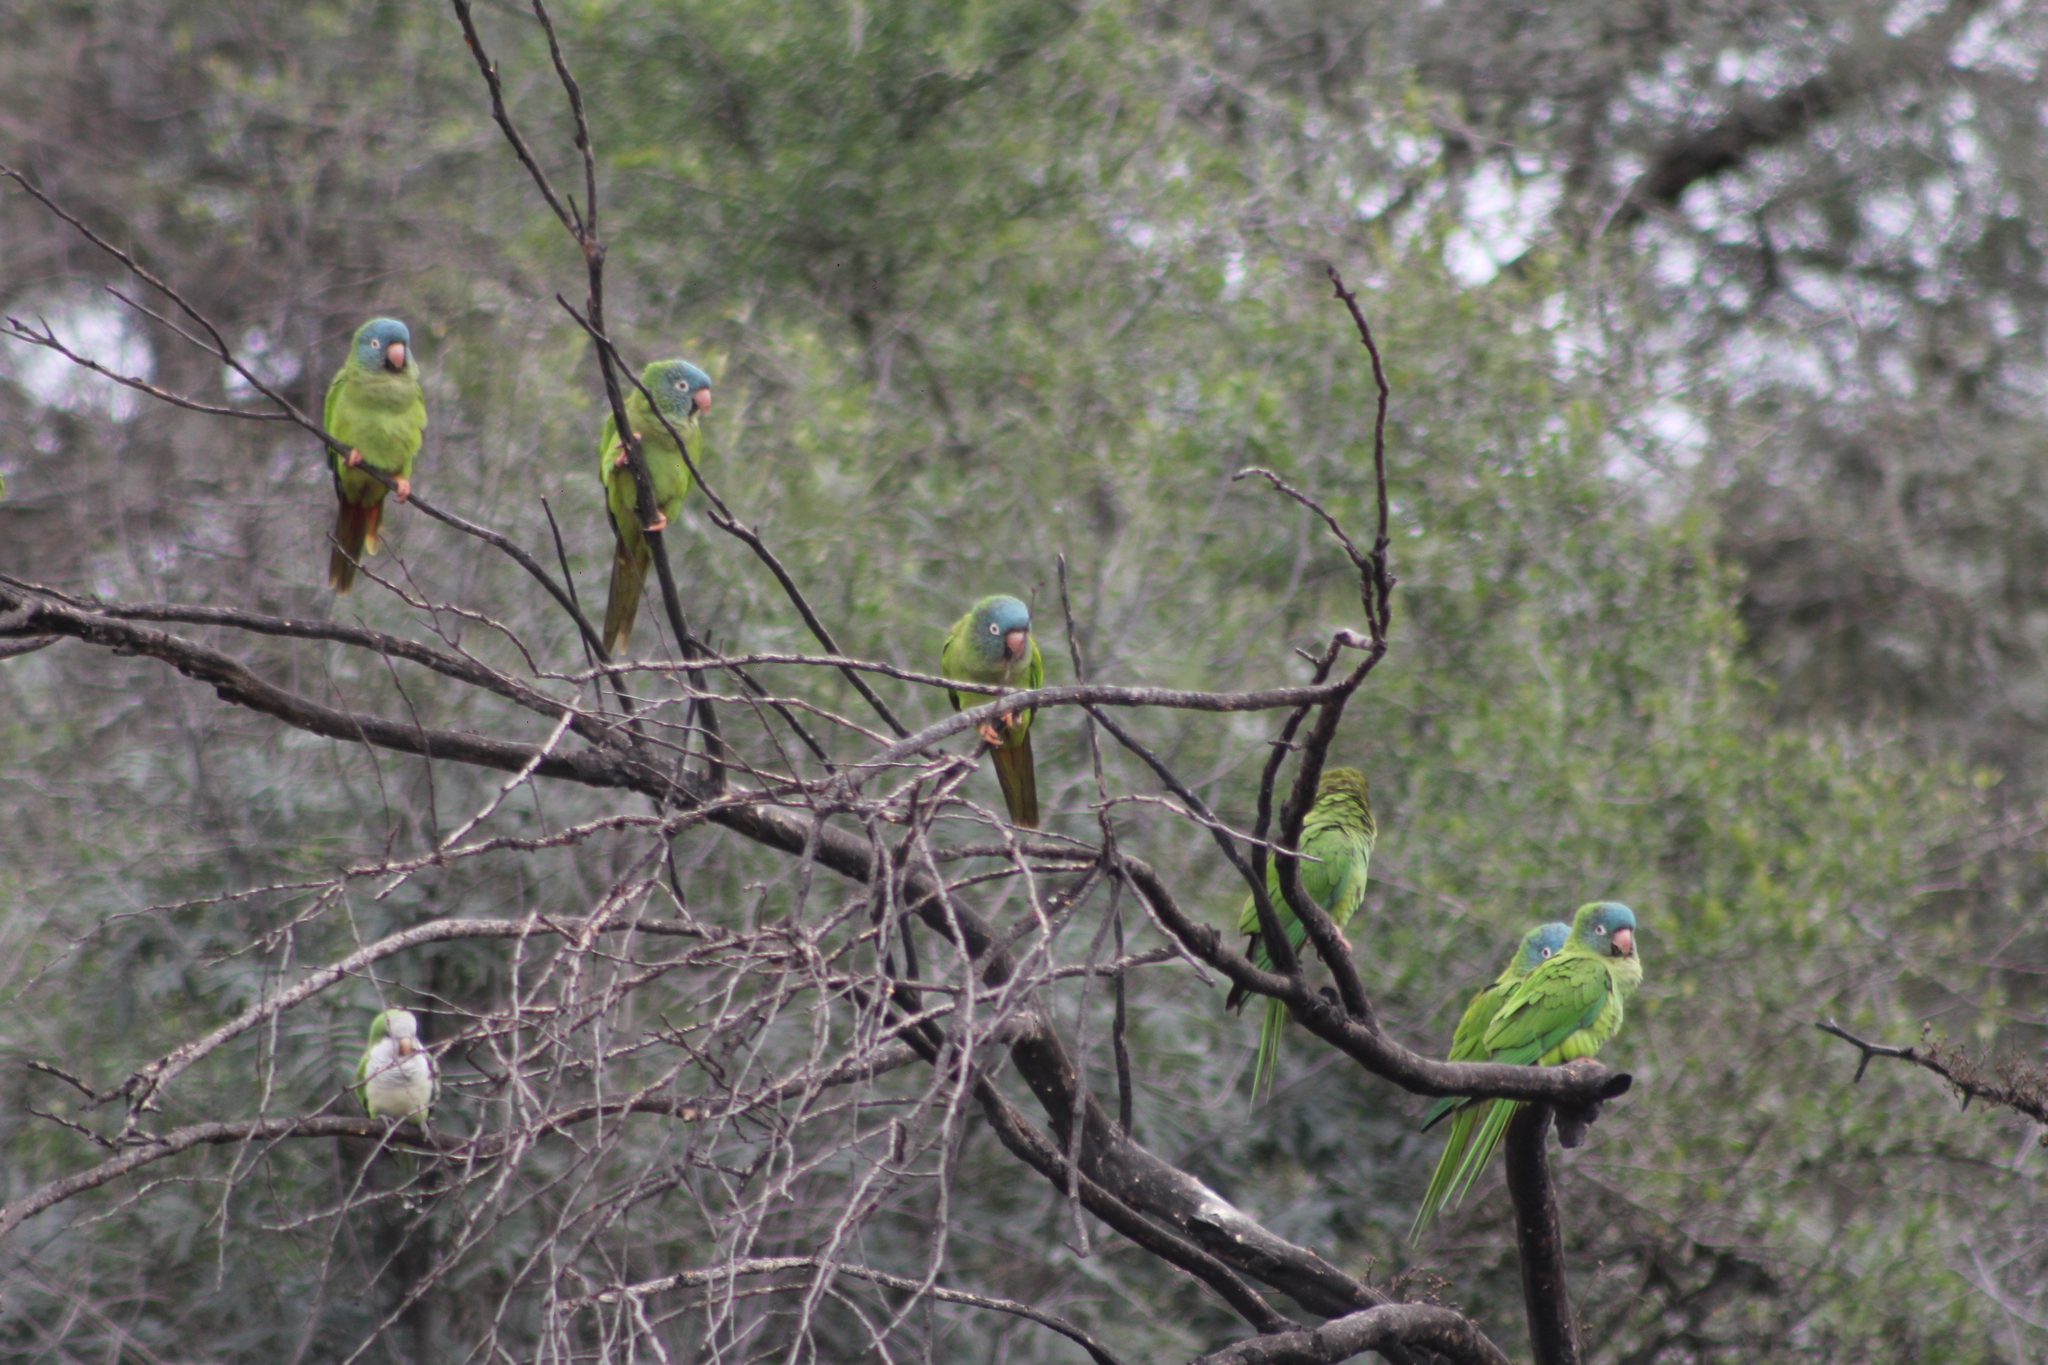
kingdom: Animalia
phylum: Chordata
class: Aves
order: Psittaciformes
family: Psittacidae
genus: Aratinga
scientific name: Aratinga acuticaudata
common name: Blue-crowned parakeet
